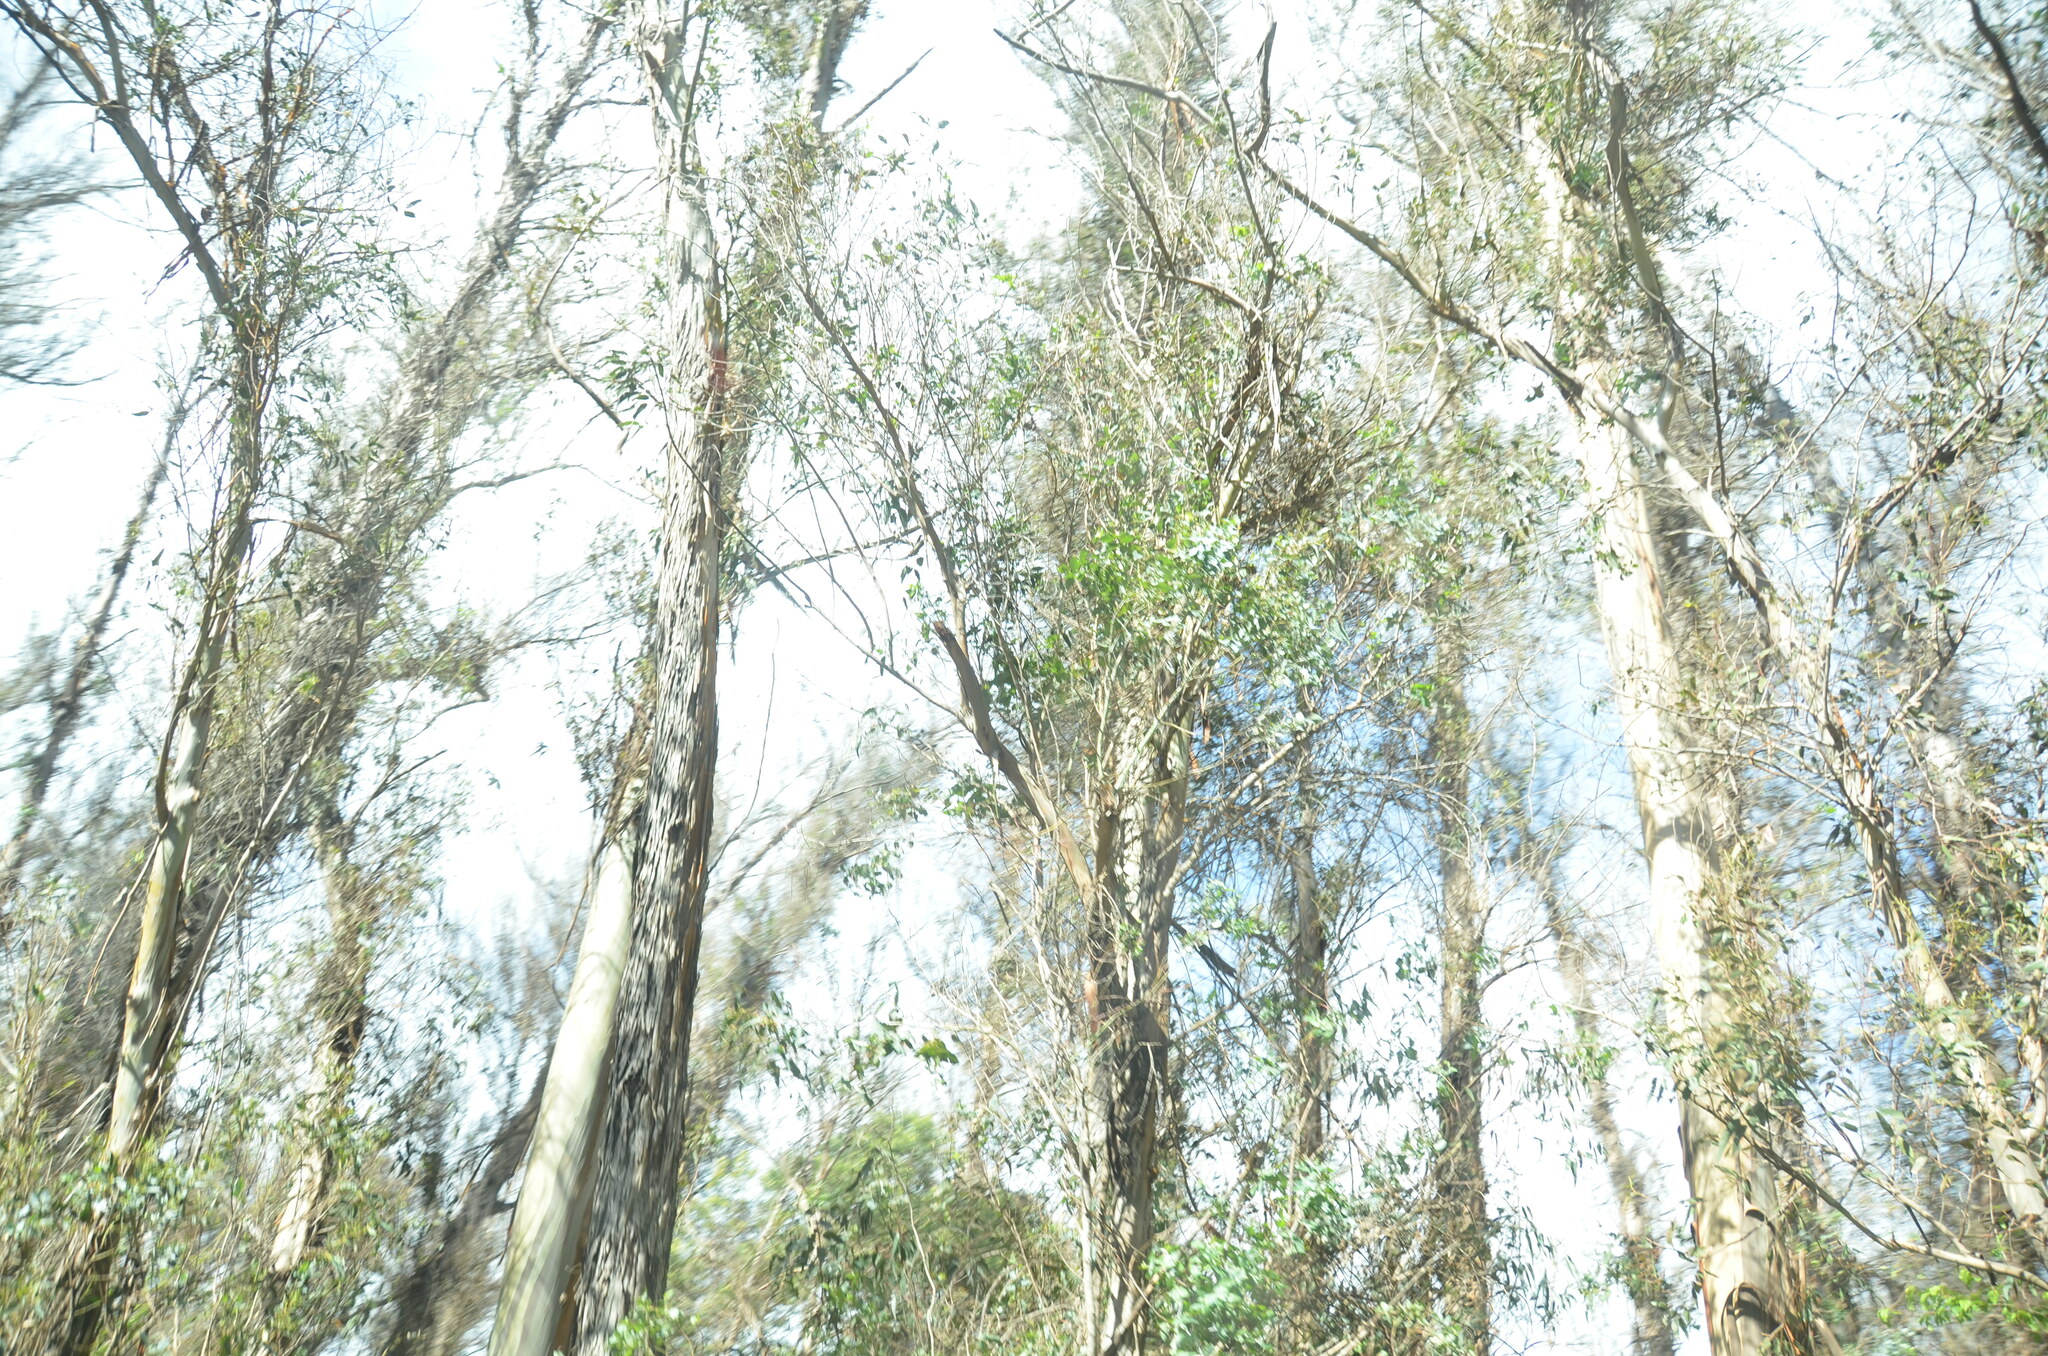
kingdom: Plantae
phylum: Tracheophyta
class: Magnoliopsida
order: Fagales
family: Casuarinaceae
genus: Casuarina
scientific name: Casuarina equisetifolia
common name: Beach sheoak
